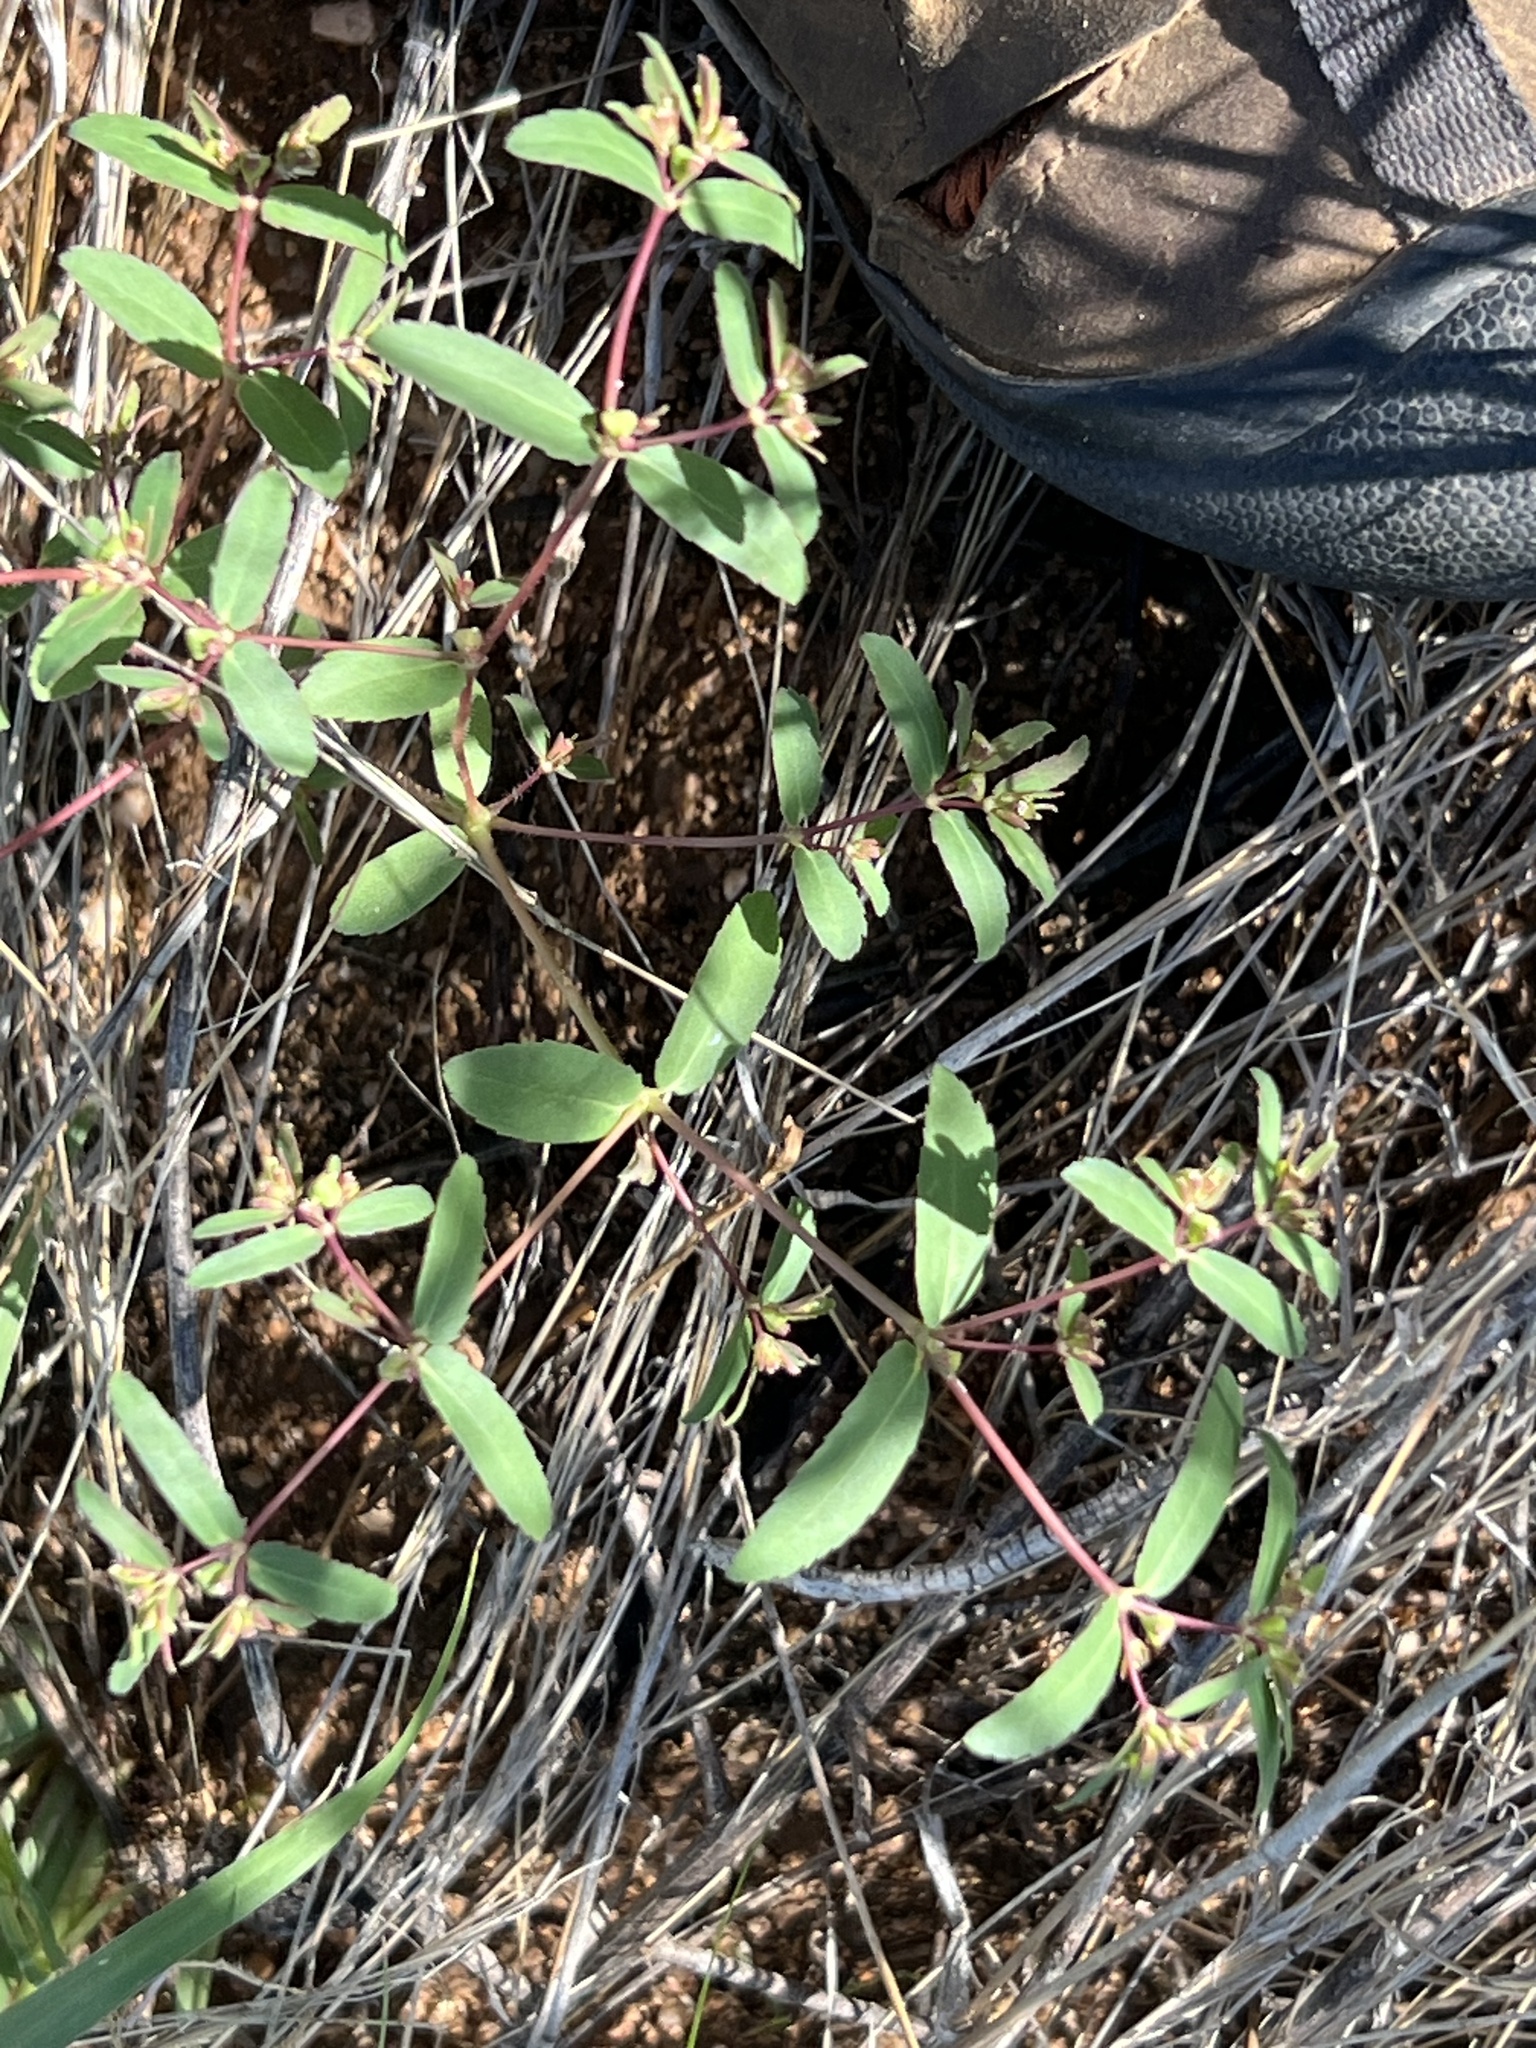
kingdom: Plantae
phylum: Tracheophyta
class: Magnoliopsida
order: Malpighiales
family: Euphorbiaceae
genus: Euphorbia
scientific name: Euphorbia hyssopifolia
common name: Hyssopleaf sandmat
